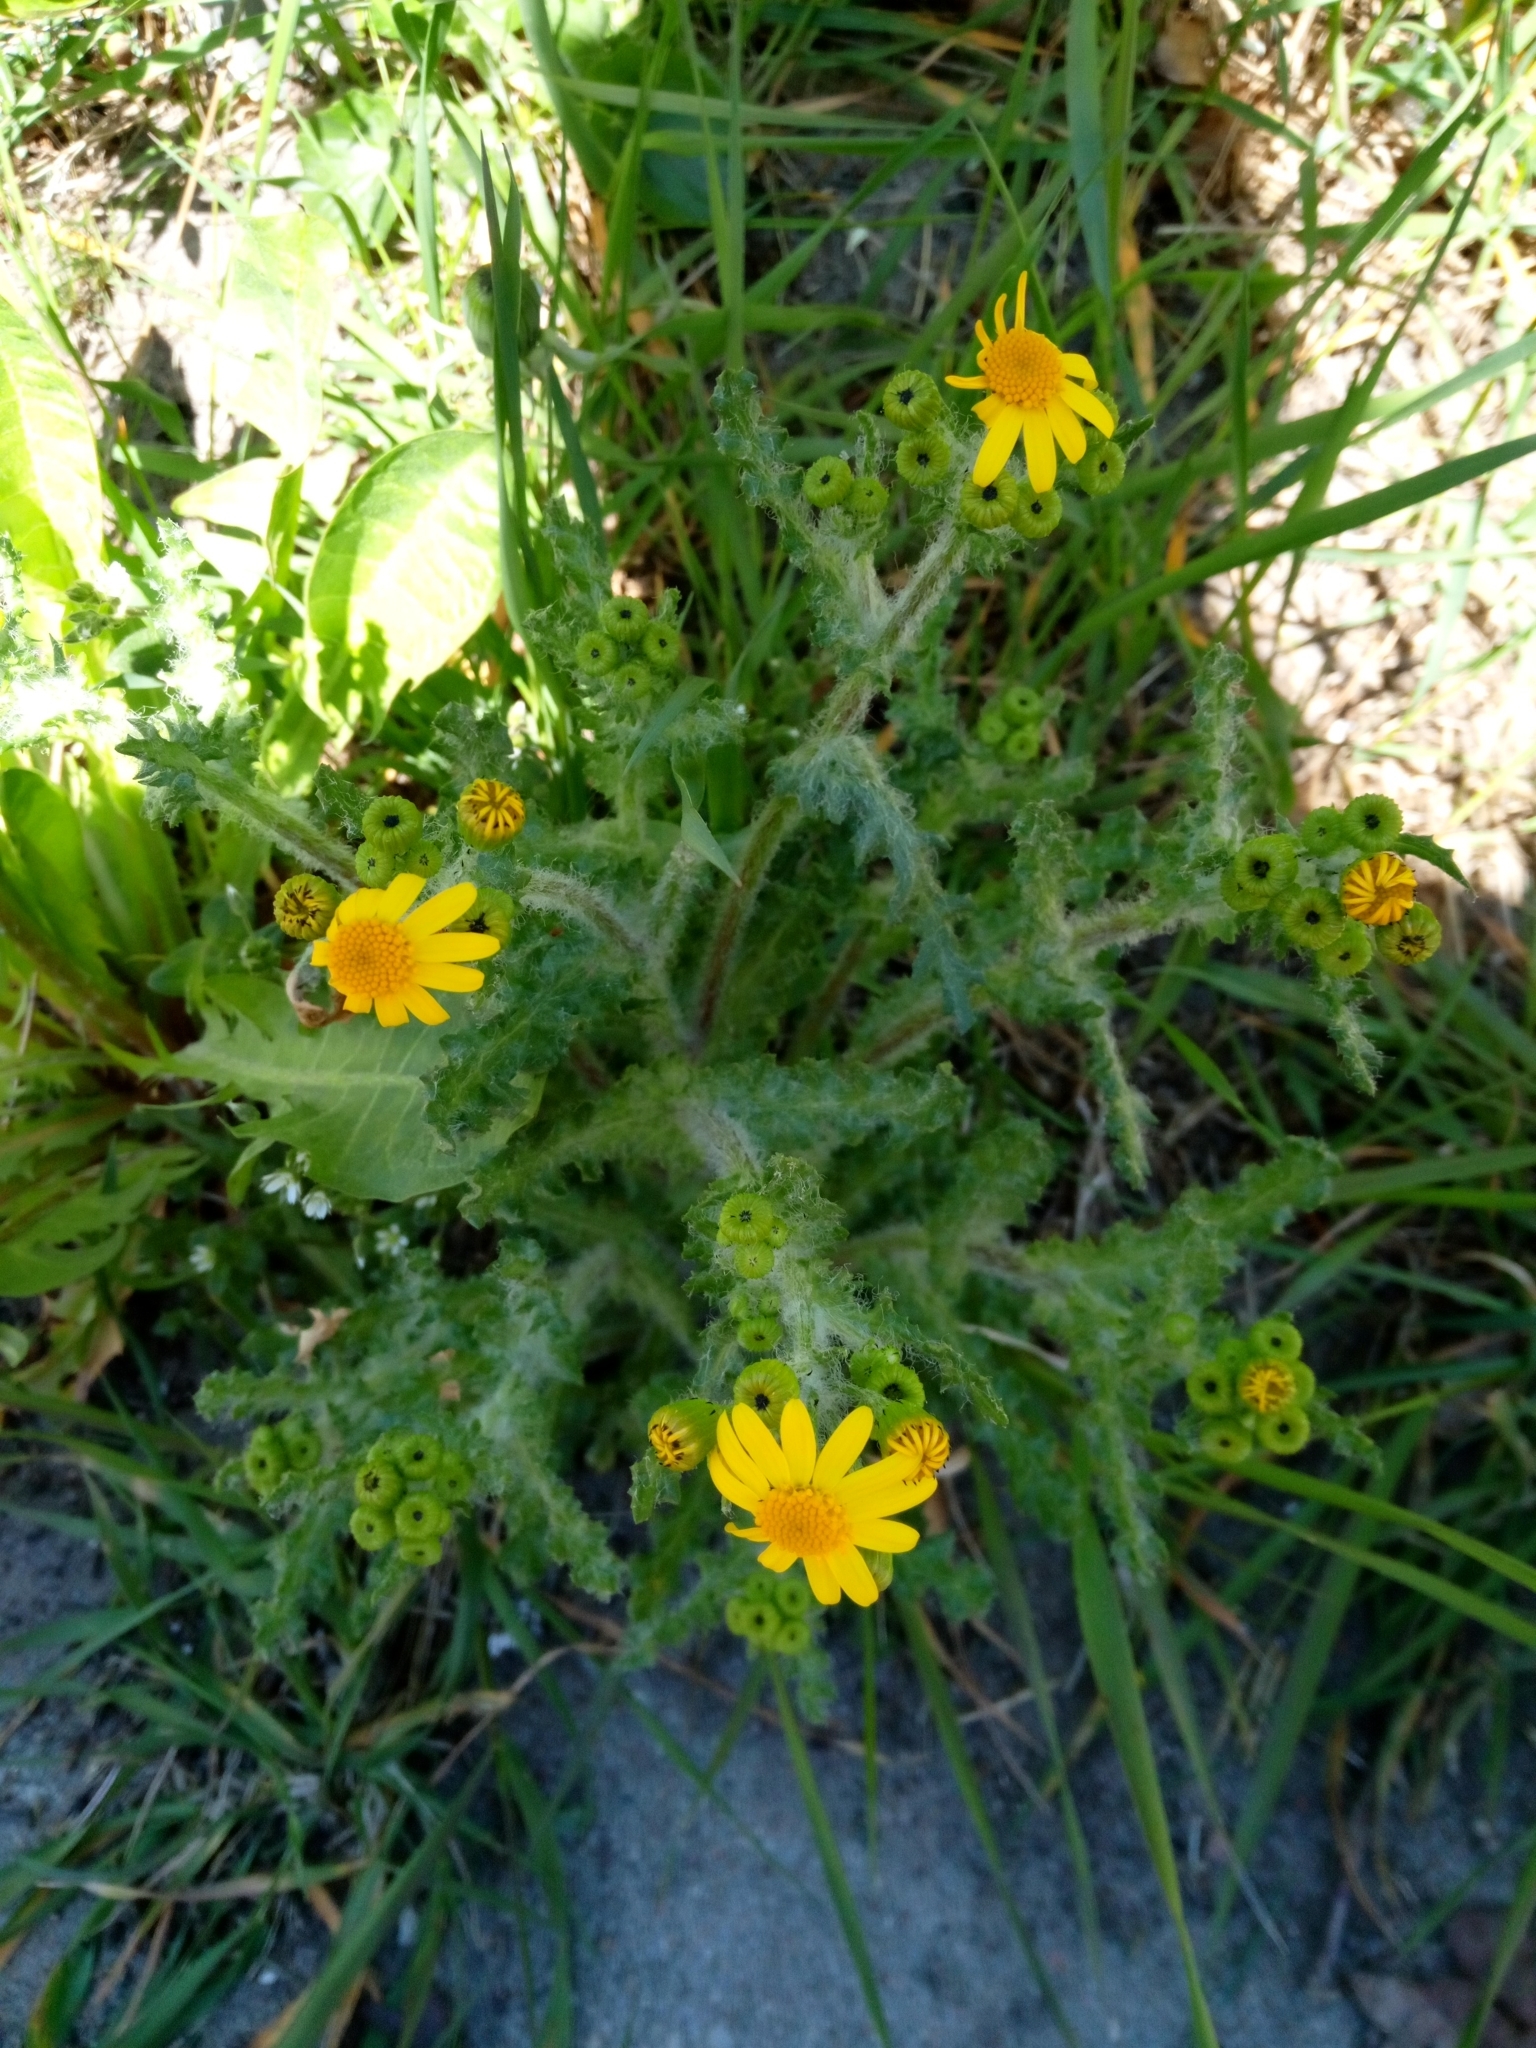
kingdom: Plantae
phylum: Tracheophyta
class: Magnoliopsida
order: Asterales
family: Asteraceae
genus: Senecio
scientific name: Senecio vernalis
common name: Eastern groundsel
